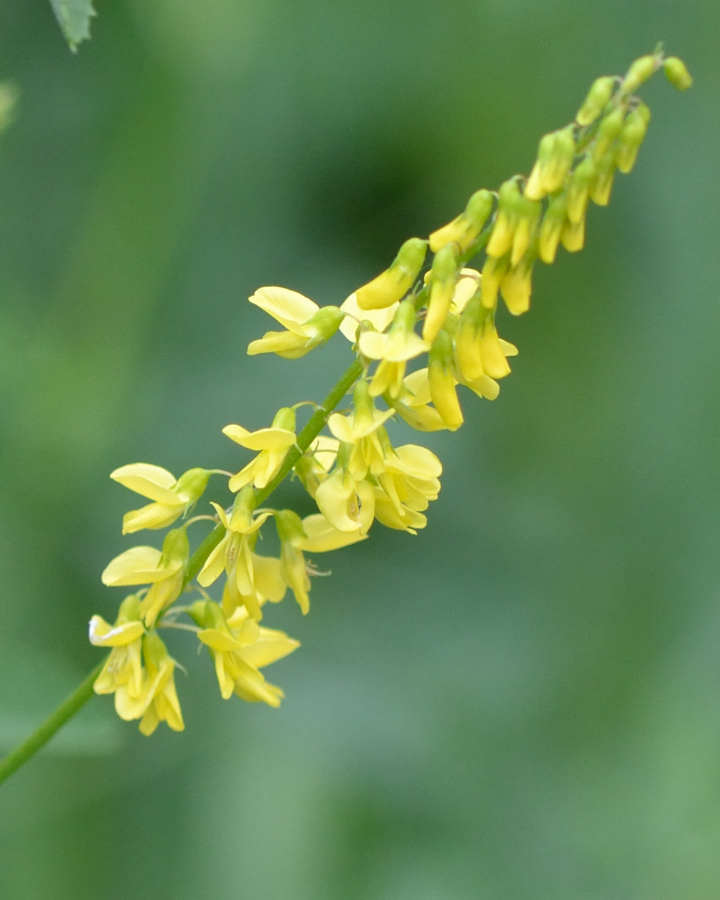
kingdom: Plantae
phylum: Tracheophyta
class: Magnoliopsida
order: Fabales
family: Fabaceae
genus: Melilotus
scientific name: Melilotus officinalis
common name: Sweetclover
